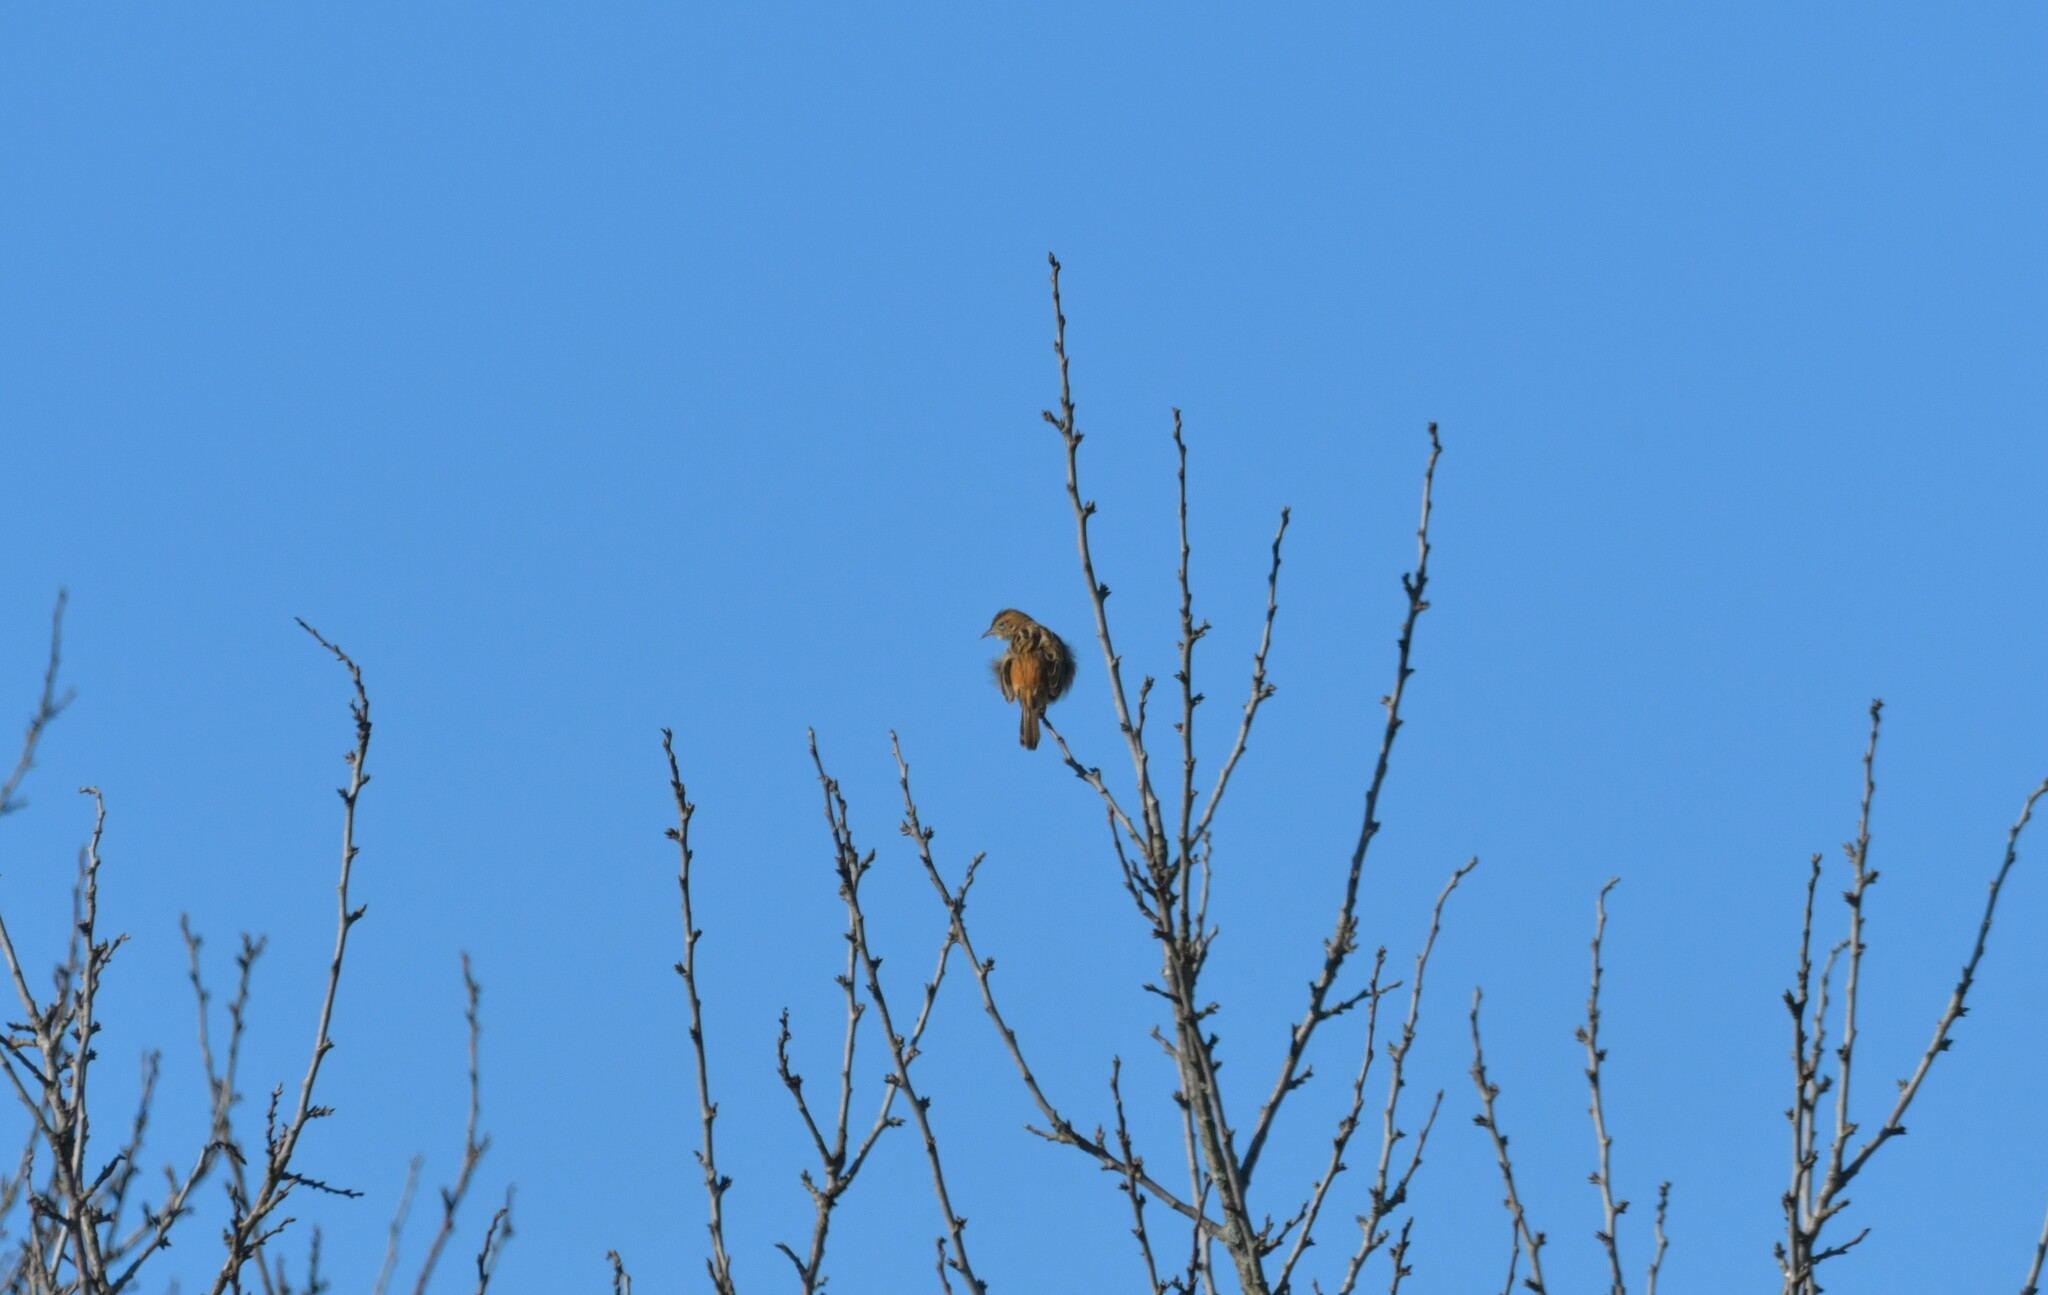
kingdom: Animalia
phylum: Chordata
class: Aves
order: Passeriformes
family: Cisticolidae
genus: Cisticola
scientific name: Cisticola juncidis
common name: Zitting cisticola
